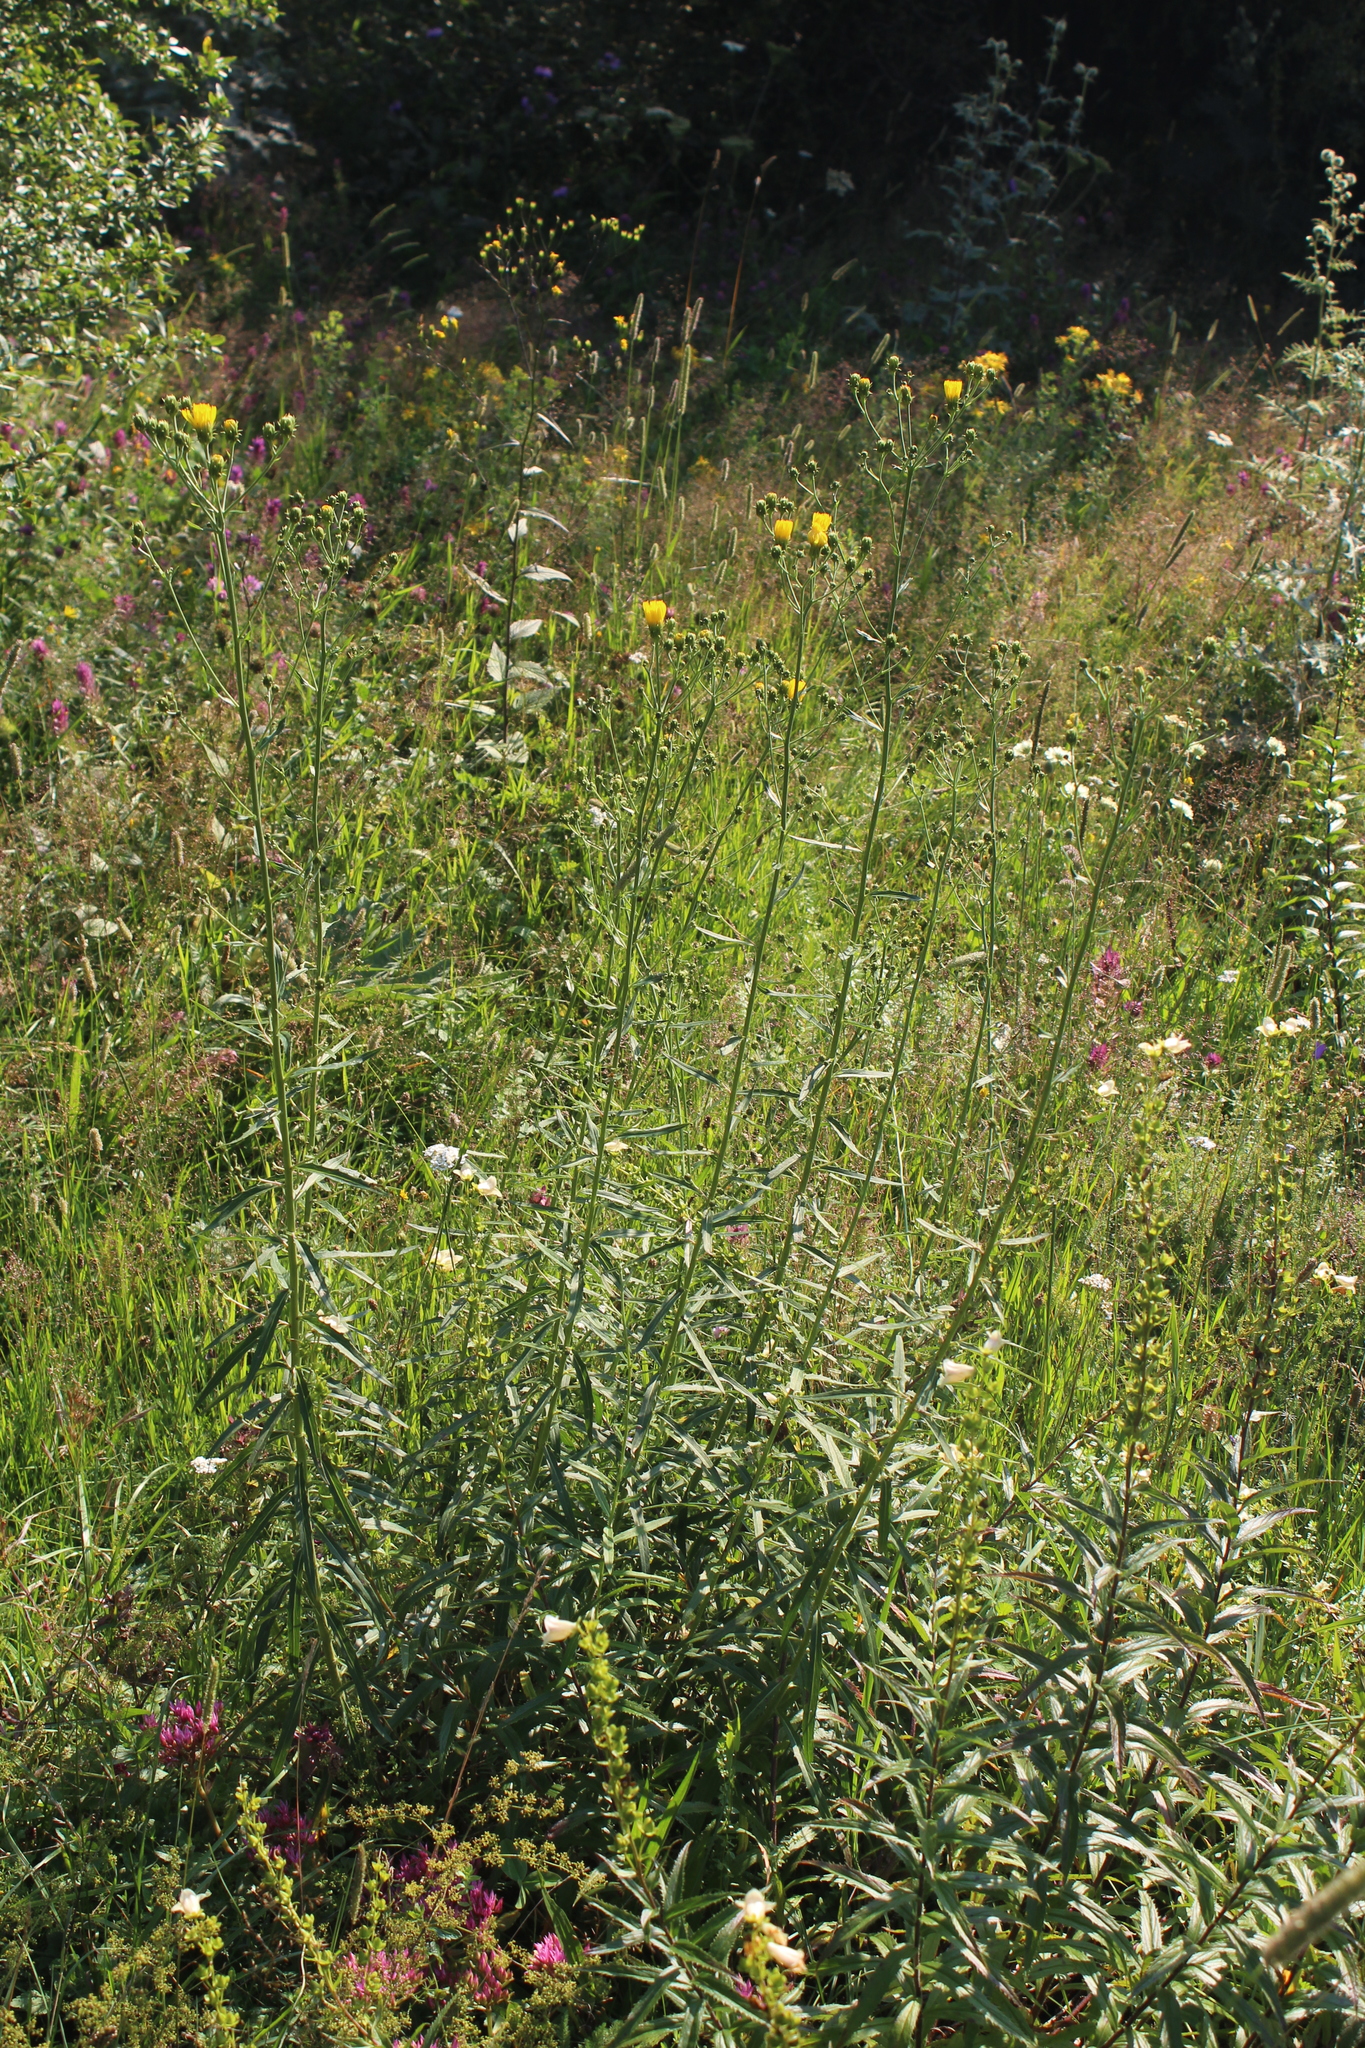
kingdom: Plantae
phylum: Tracheophyta
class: Magnoliopsida
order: Asterales
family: Asteraceae
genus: Hieracium
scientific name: Hieracium umbellatum
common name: Northern hawkweed
